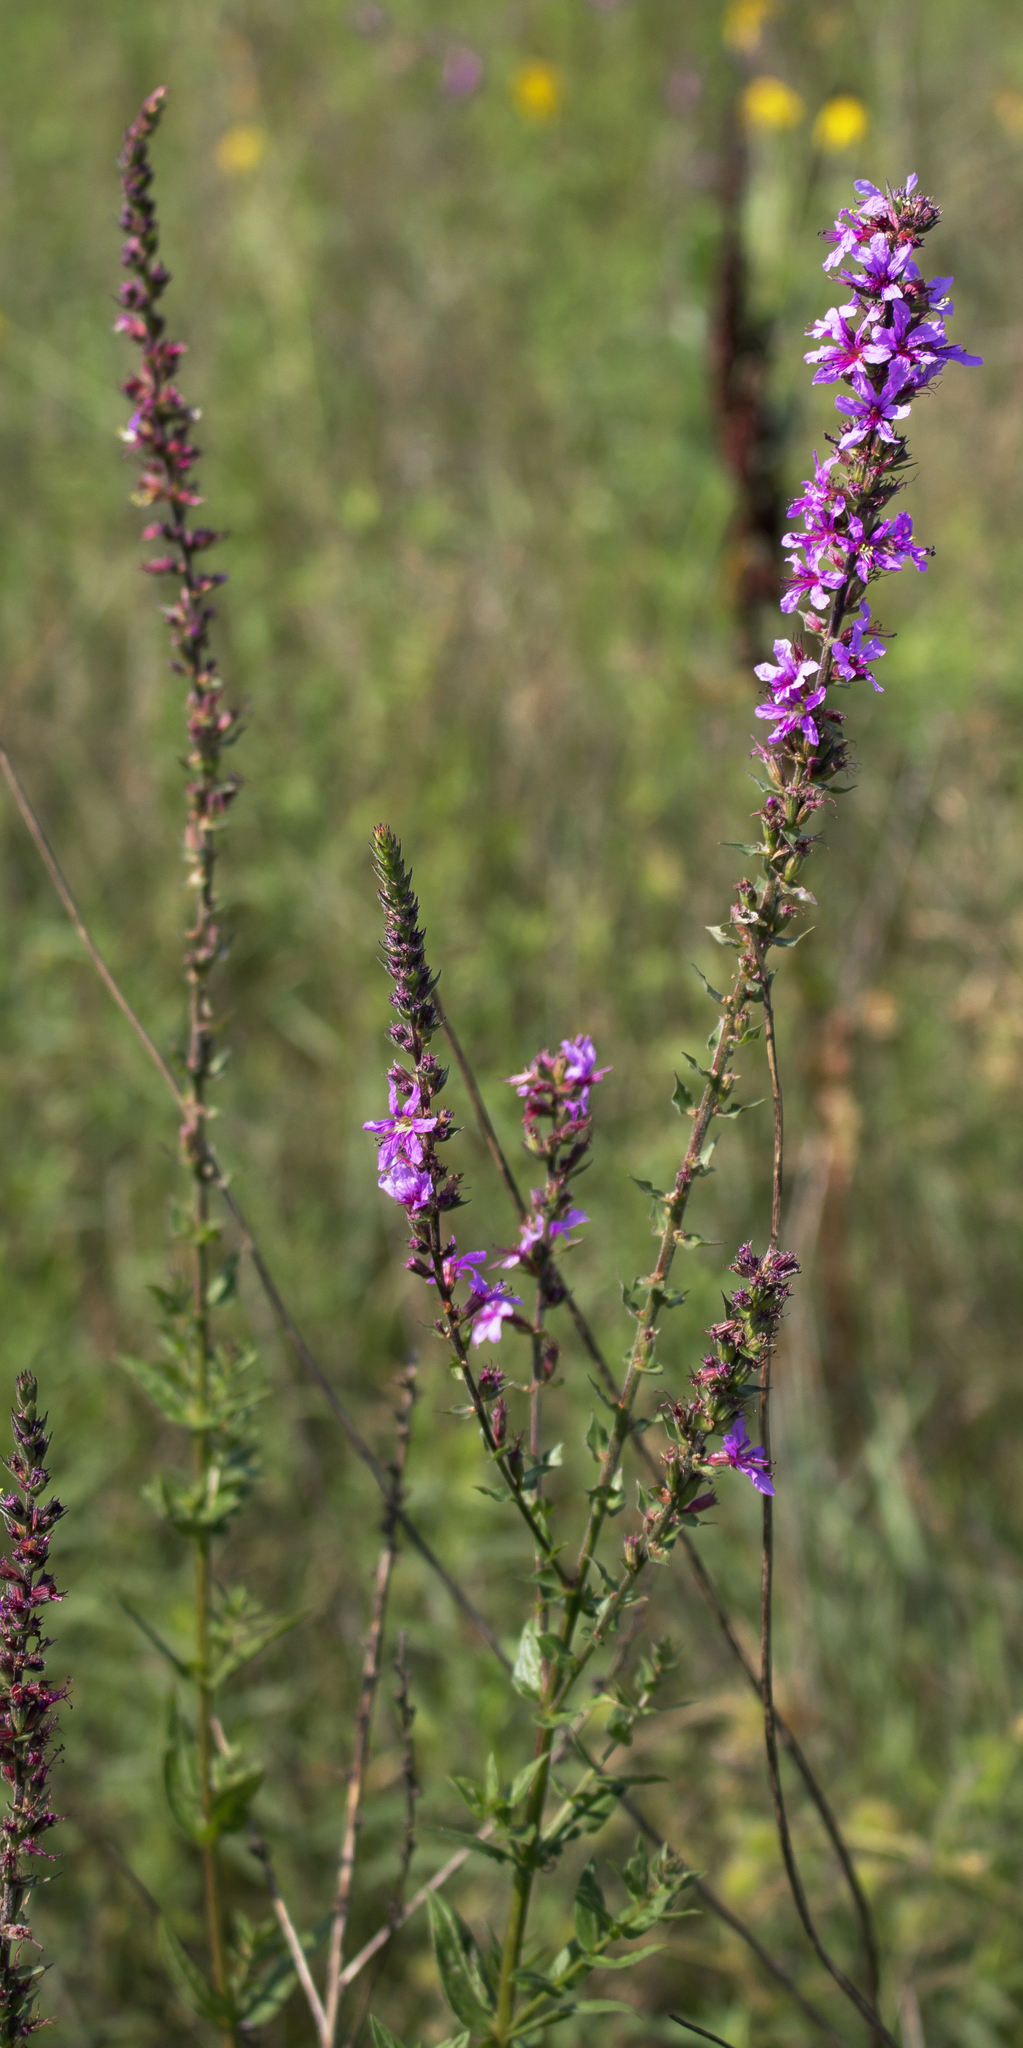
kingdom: Plantae
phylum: Tracheophyta
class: Magnoliopsida
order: Myrtales
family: Lythraceae
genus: Lythrum
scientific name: Lythrum salicaria
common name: Purple loosestrife
